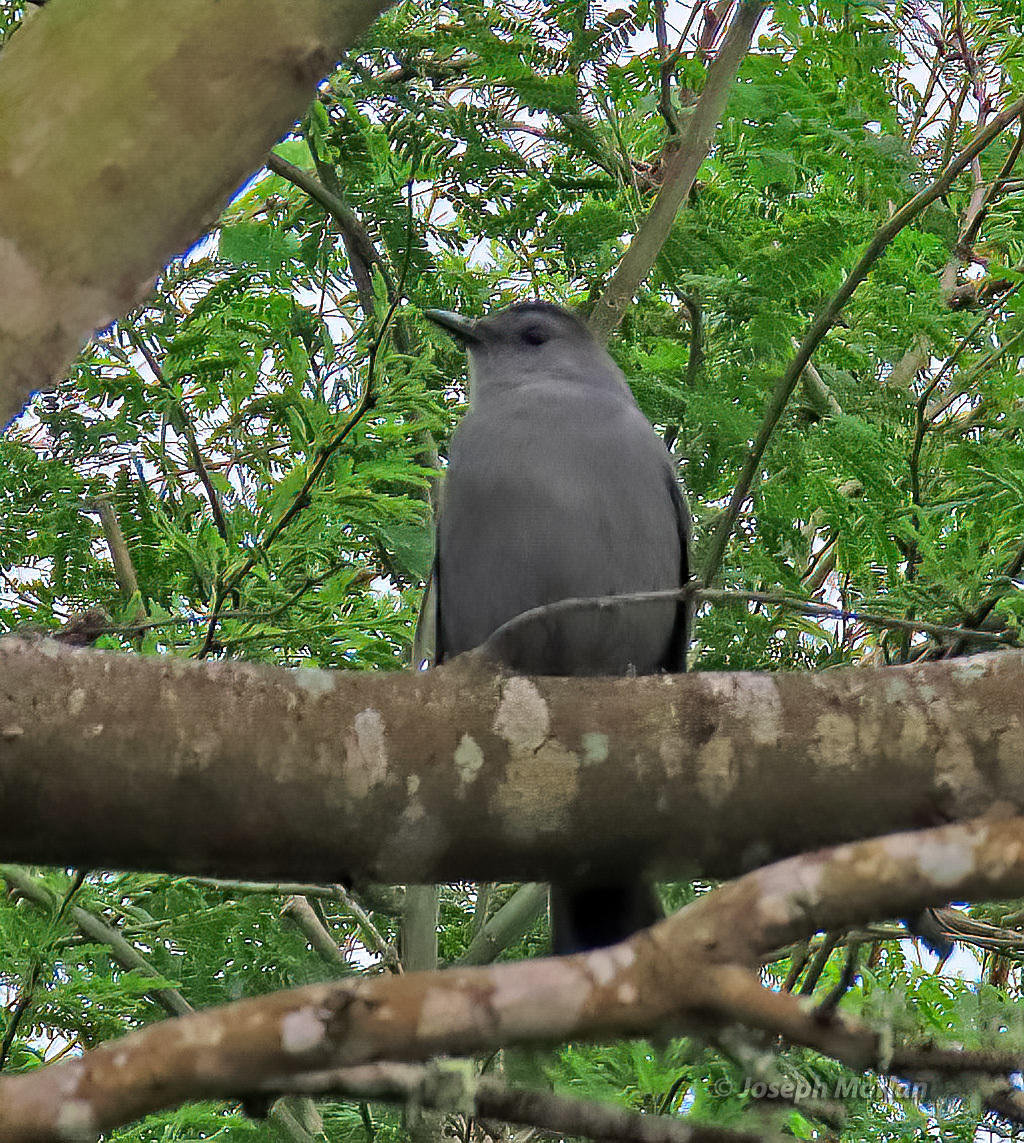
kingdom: Animalia
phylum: Chordata
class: Aves
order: Passeriformes
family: Mimidae
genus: Dumetella
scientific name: Dumetella carolinensis
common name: Gray catbird
